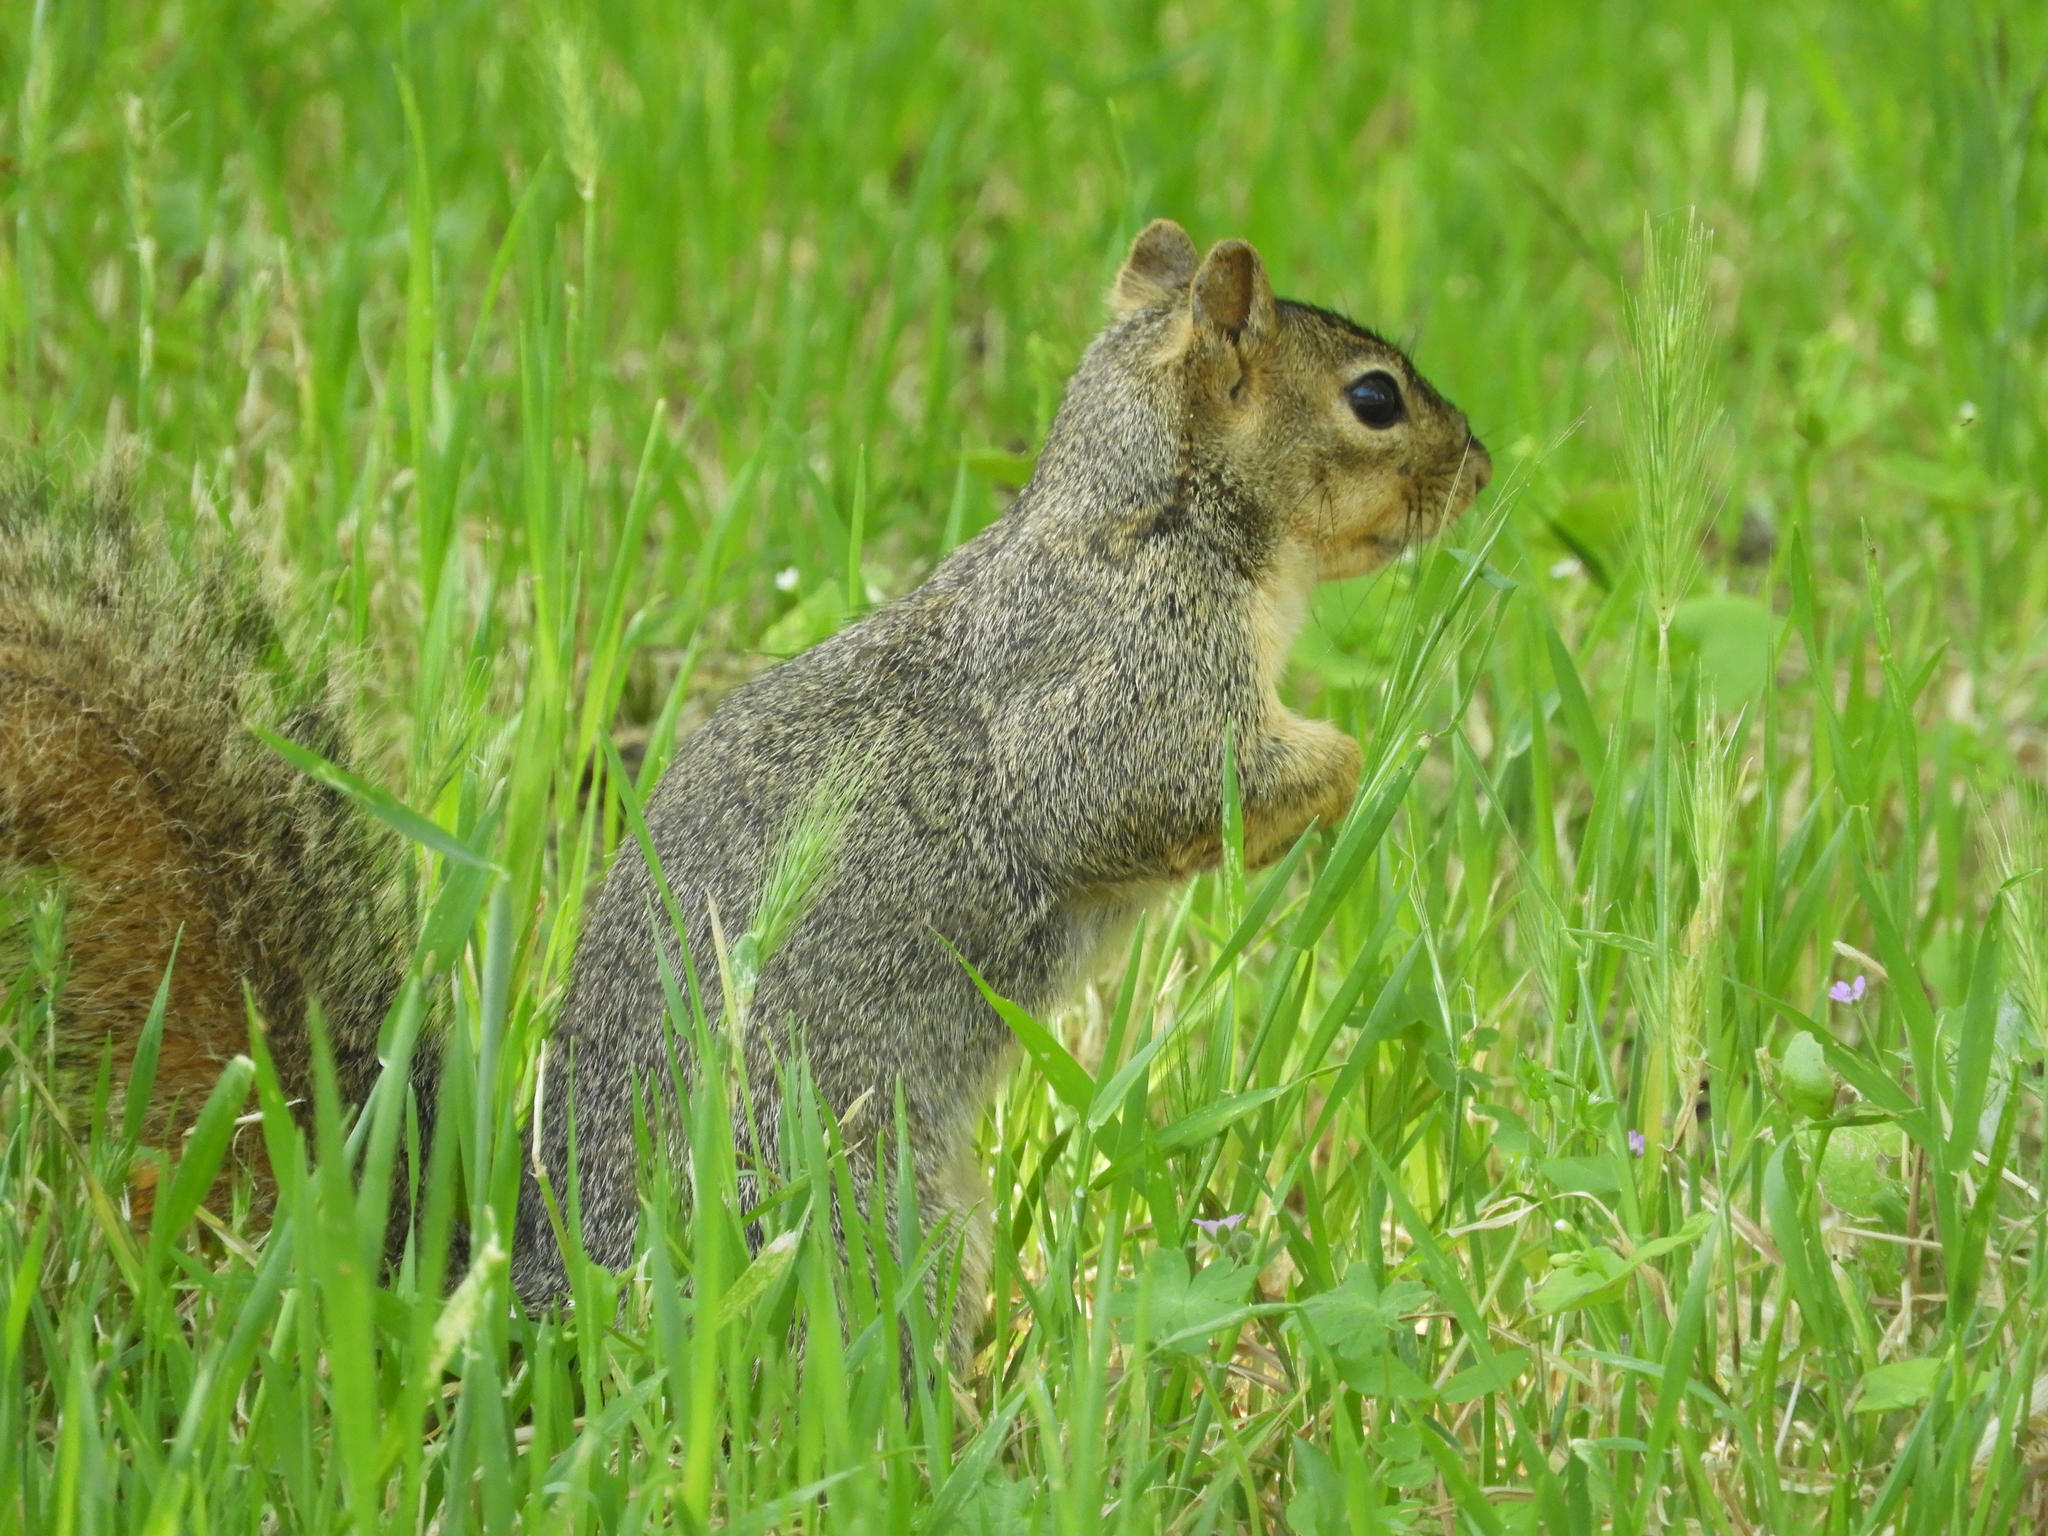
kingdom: Animalia
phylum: Chordata
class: Mammalia
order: Rodentia
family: Sciuridae
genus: Sciurus
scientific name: Sciurus niger
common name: Fox squirrel
